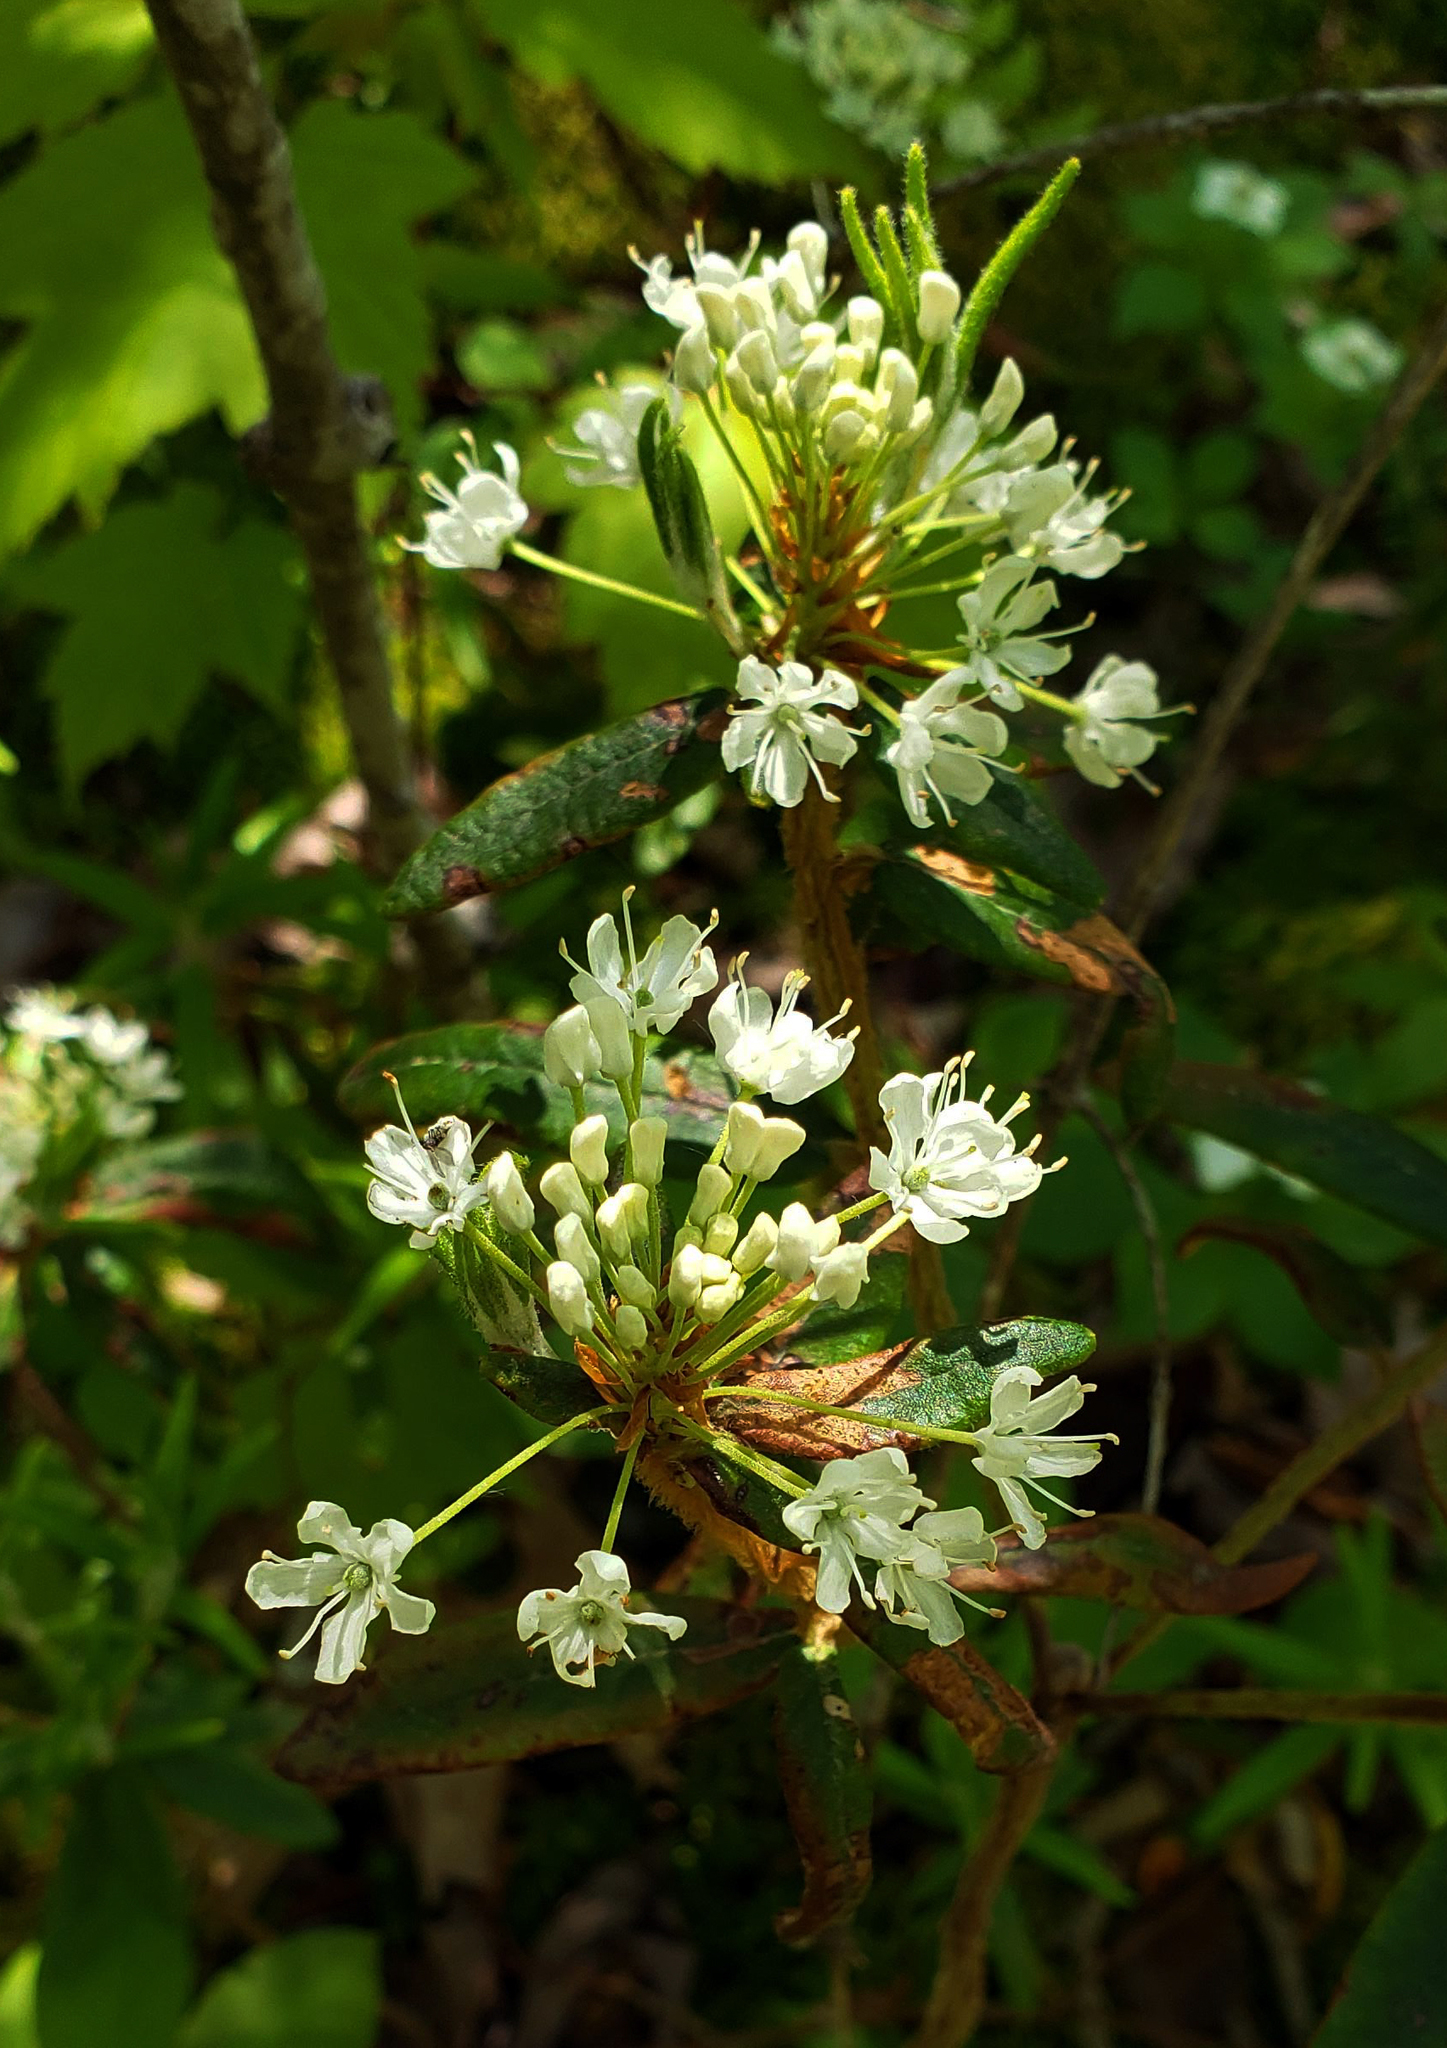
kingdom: Plantae
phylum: Tracheophyta
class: Magnoliopsida
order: Ericales
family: Ericaceae
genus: Rhododendron
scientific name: Rhododendron groenlandicum
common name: Bog labrador tea
